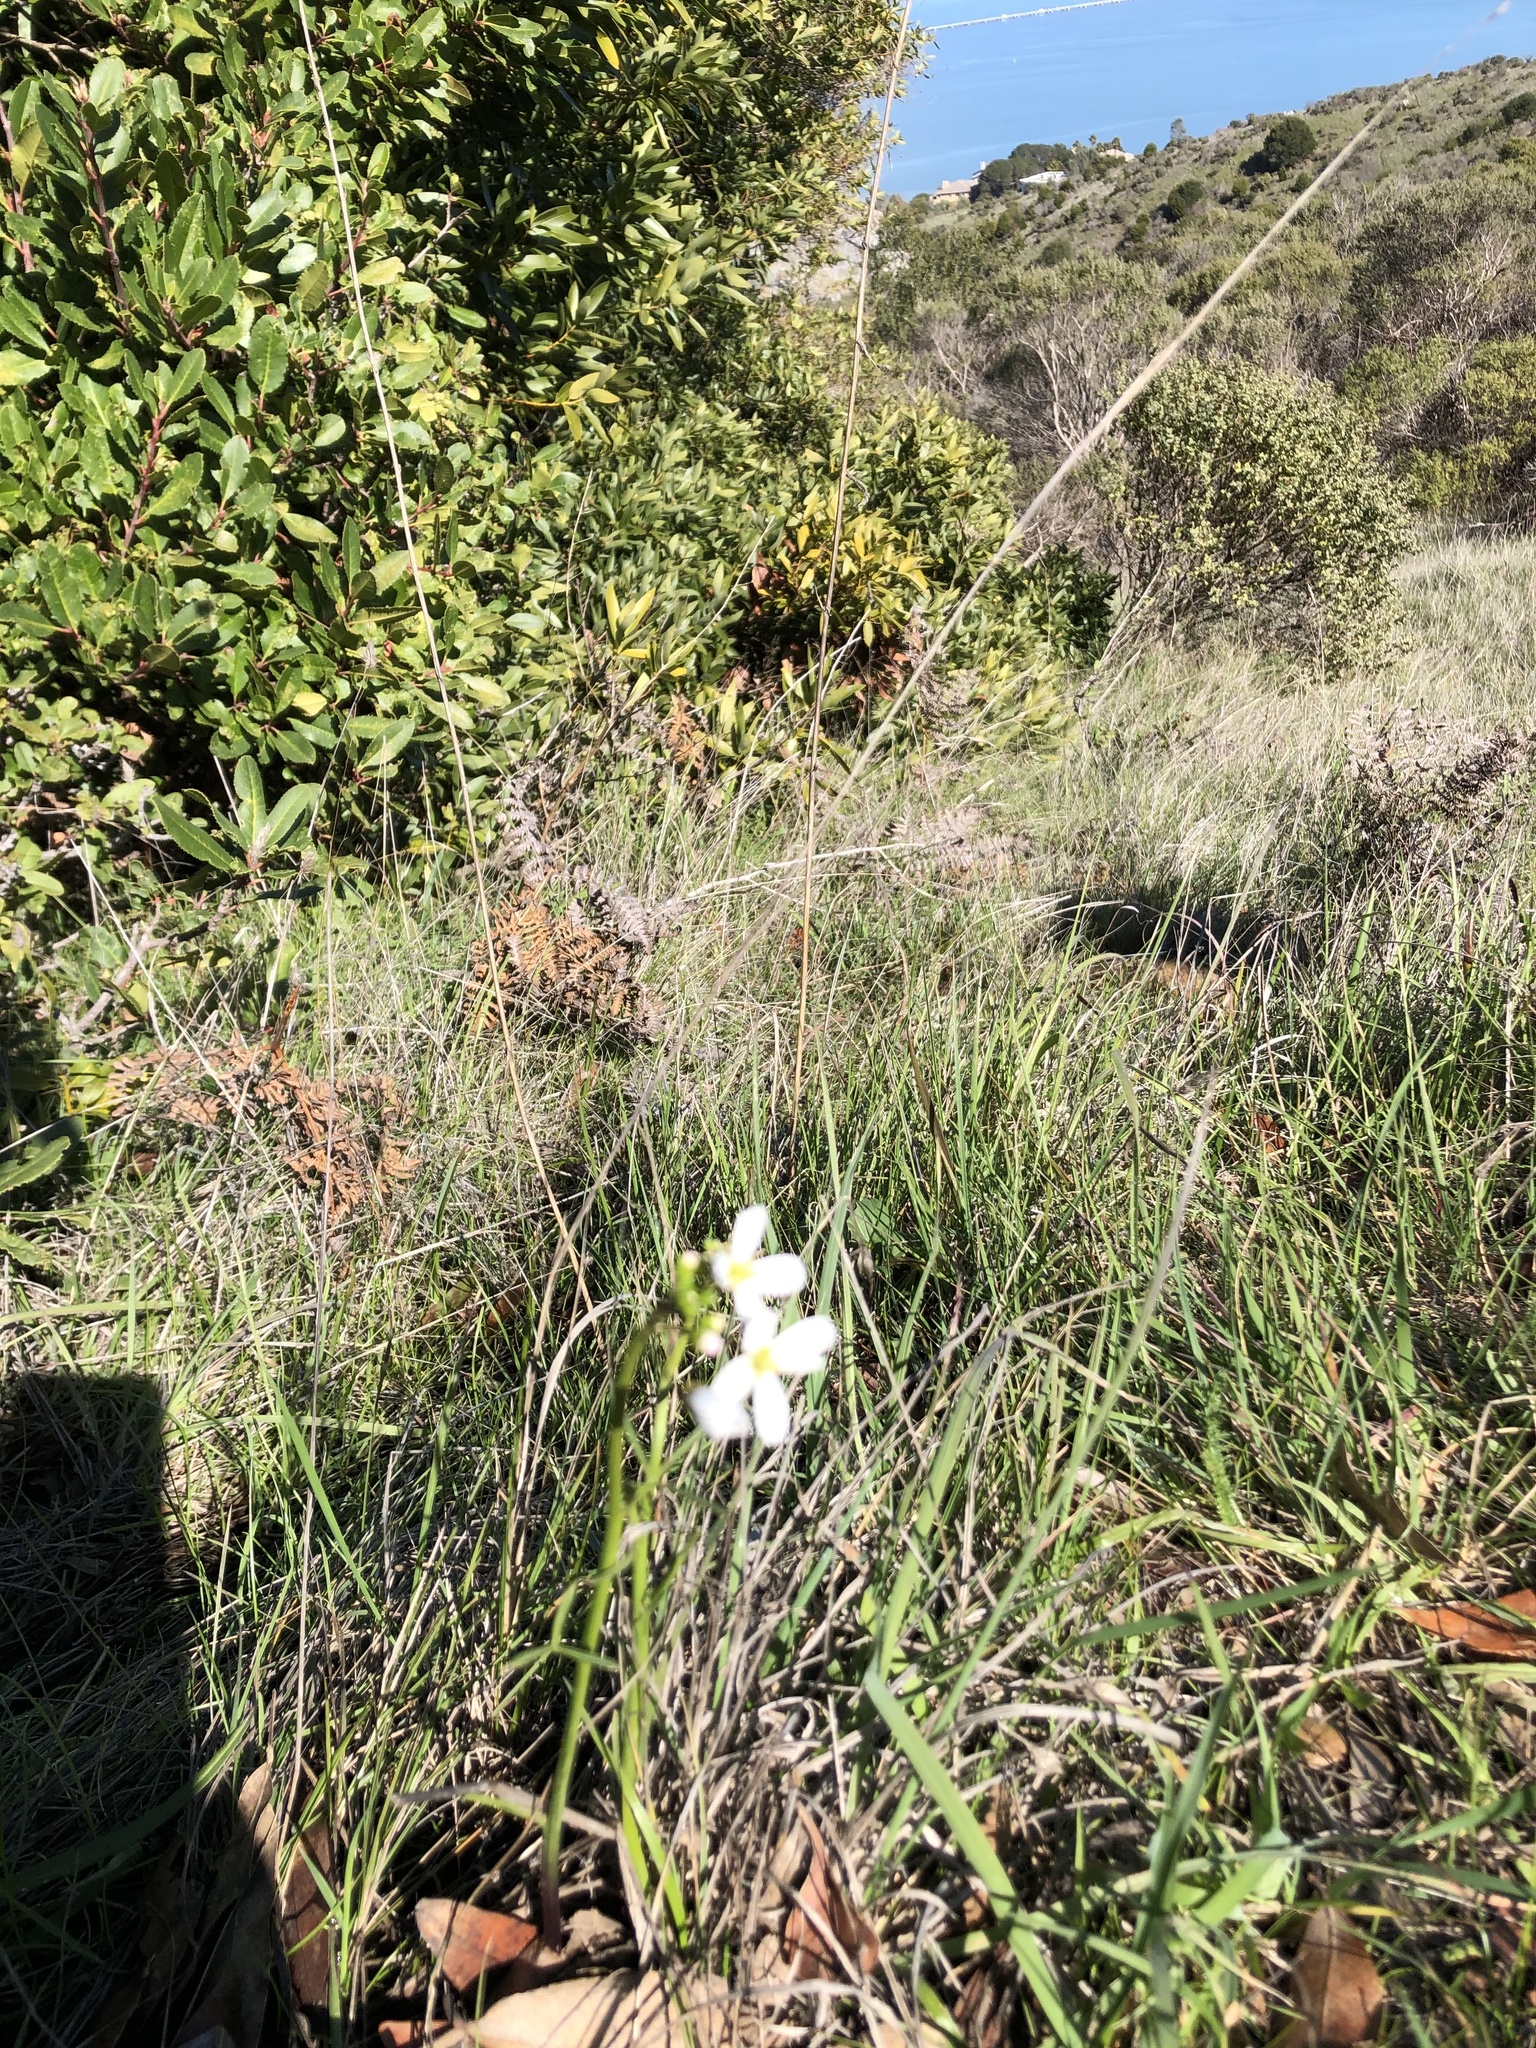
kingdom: Plantae
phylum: Tracheophyta
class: Magnoliopsida
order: Brassicales
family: Brassicaceae
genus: Cardamine
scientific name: Cardamine californica
